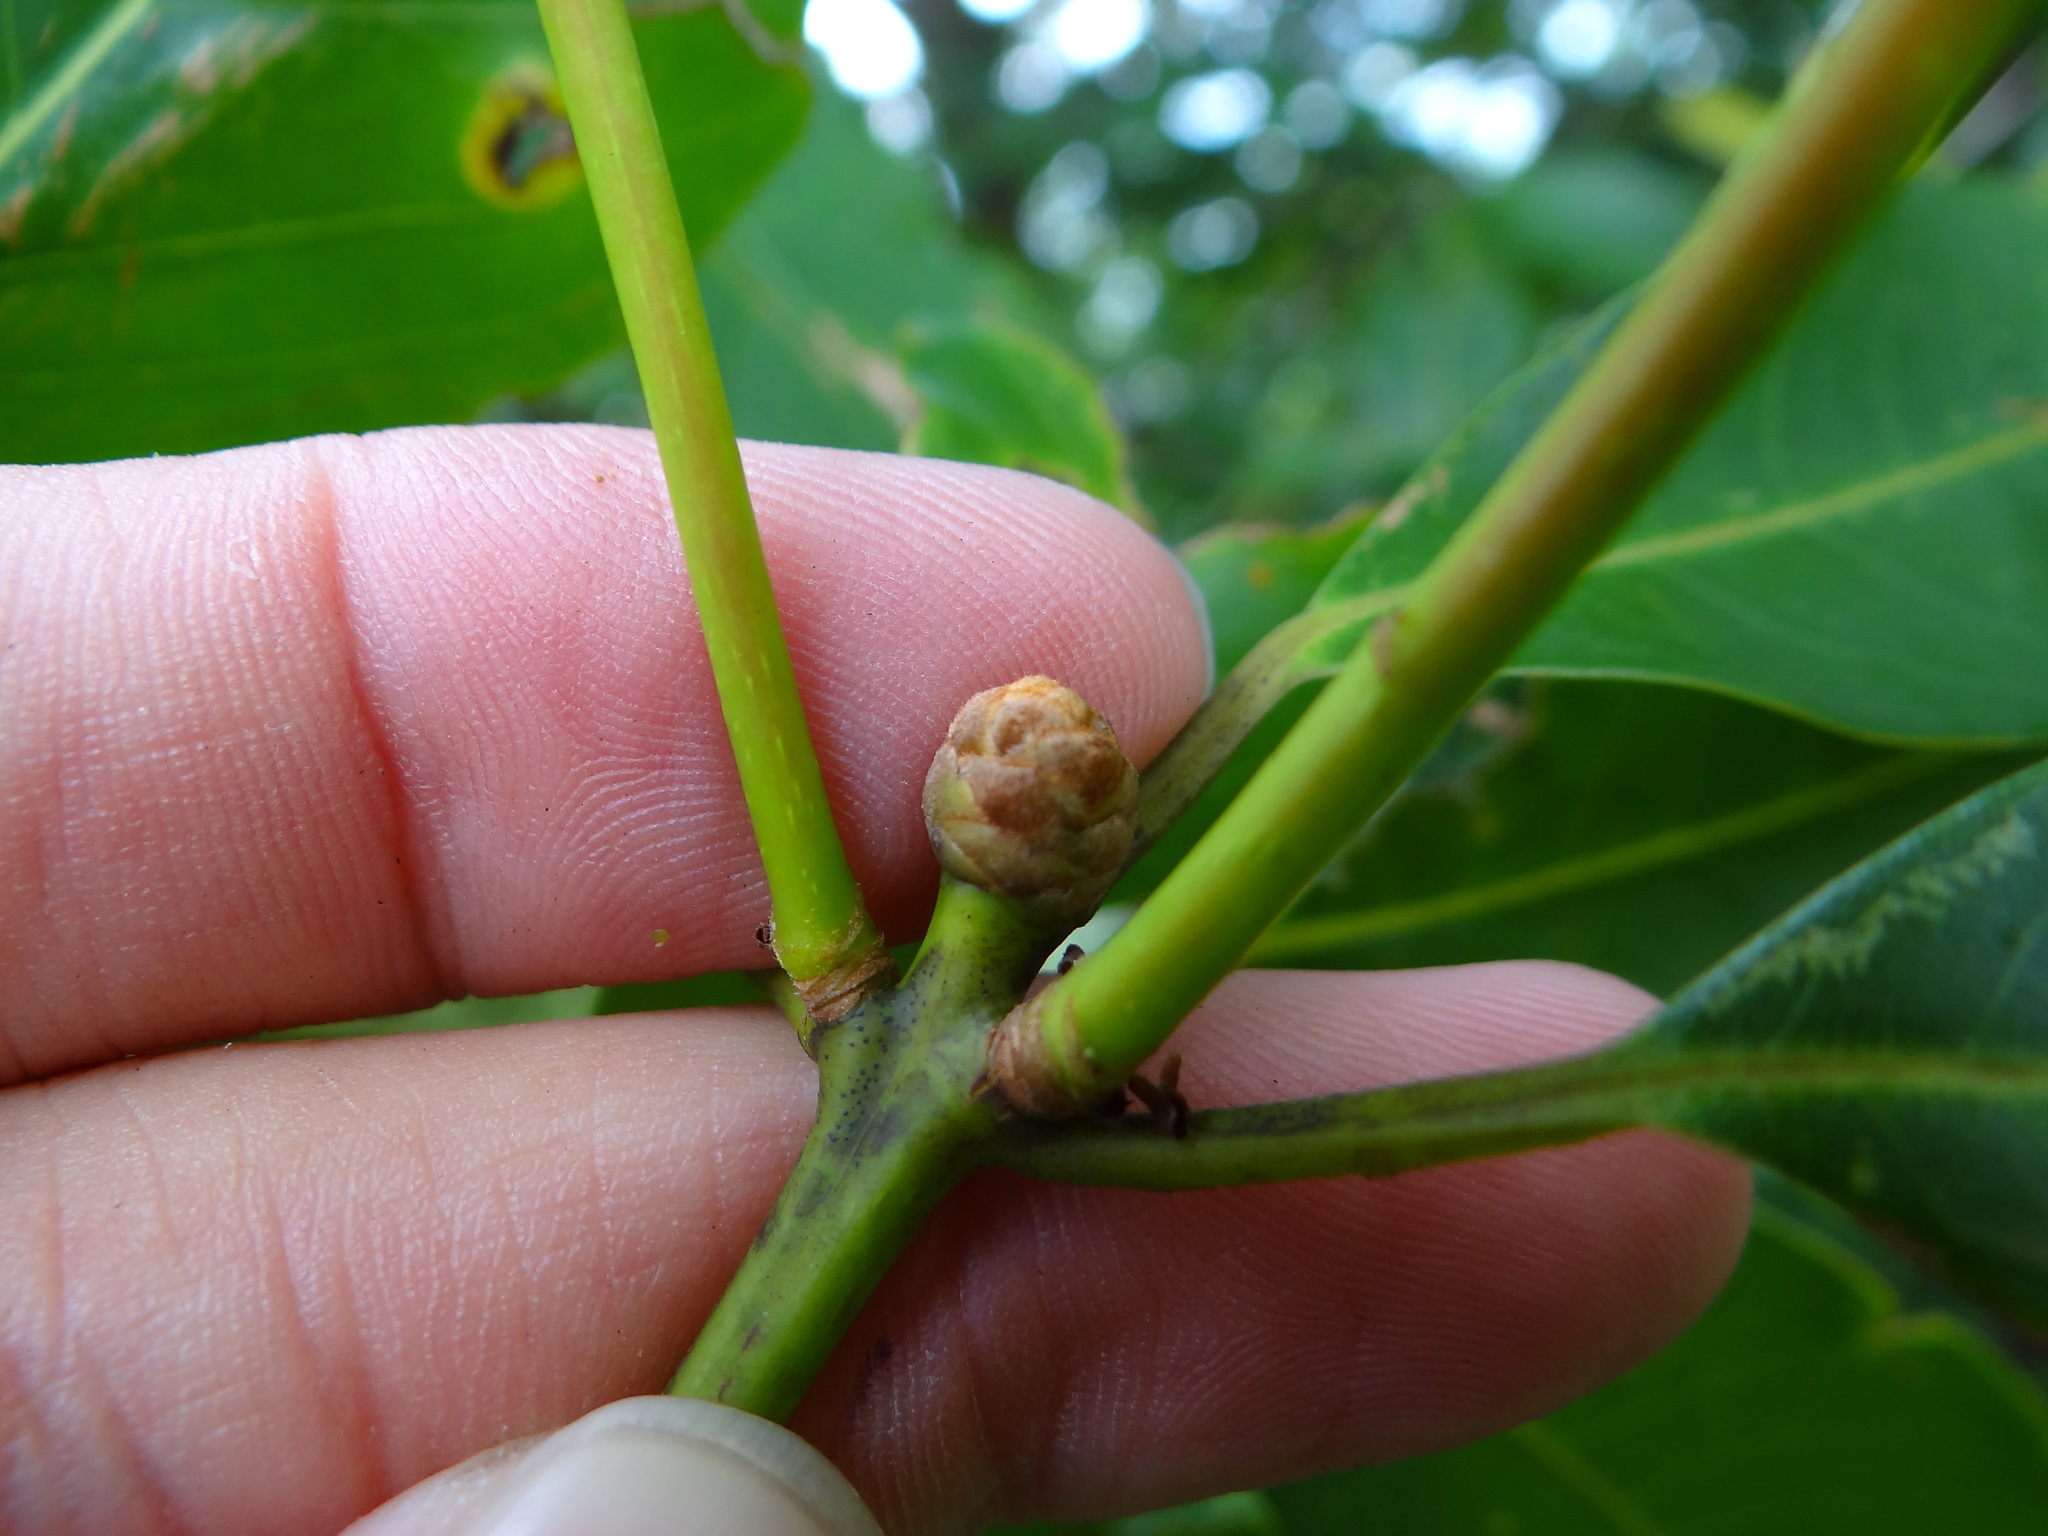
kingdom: Plantae
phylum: Tracheophyta
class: Magnoliopsida
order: Laurales
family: Lauraceae
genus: Machilus
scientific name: Machilus zuihoensis
